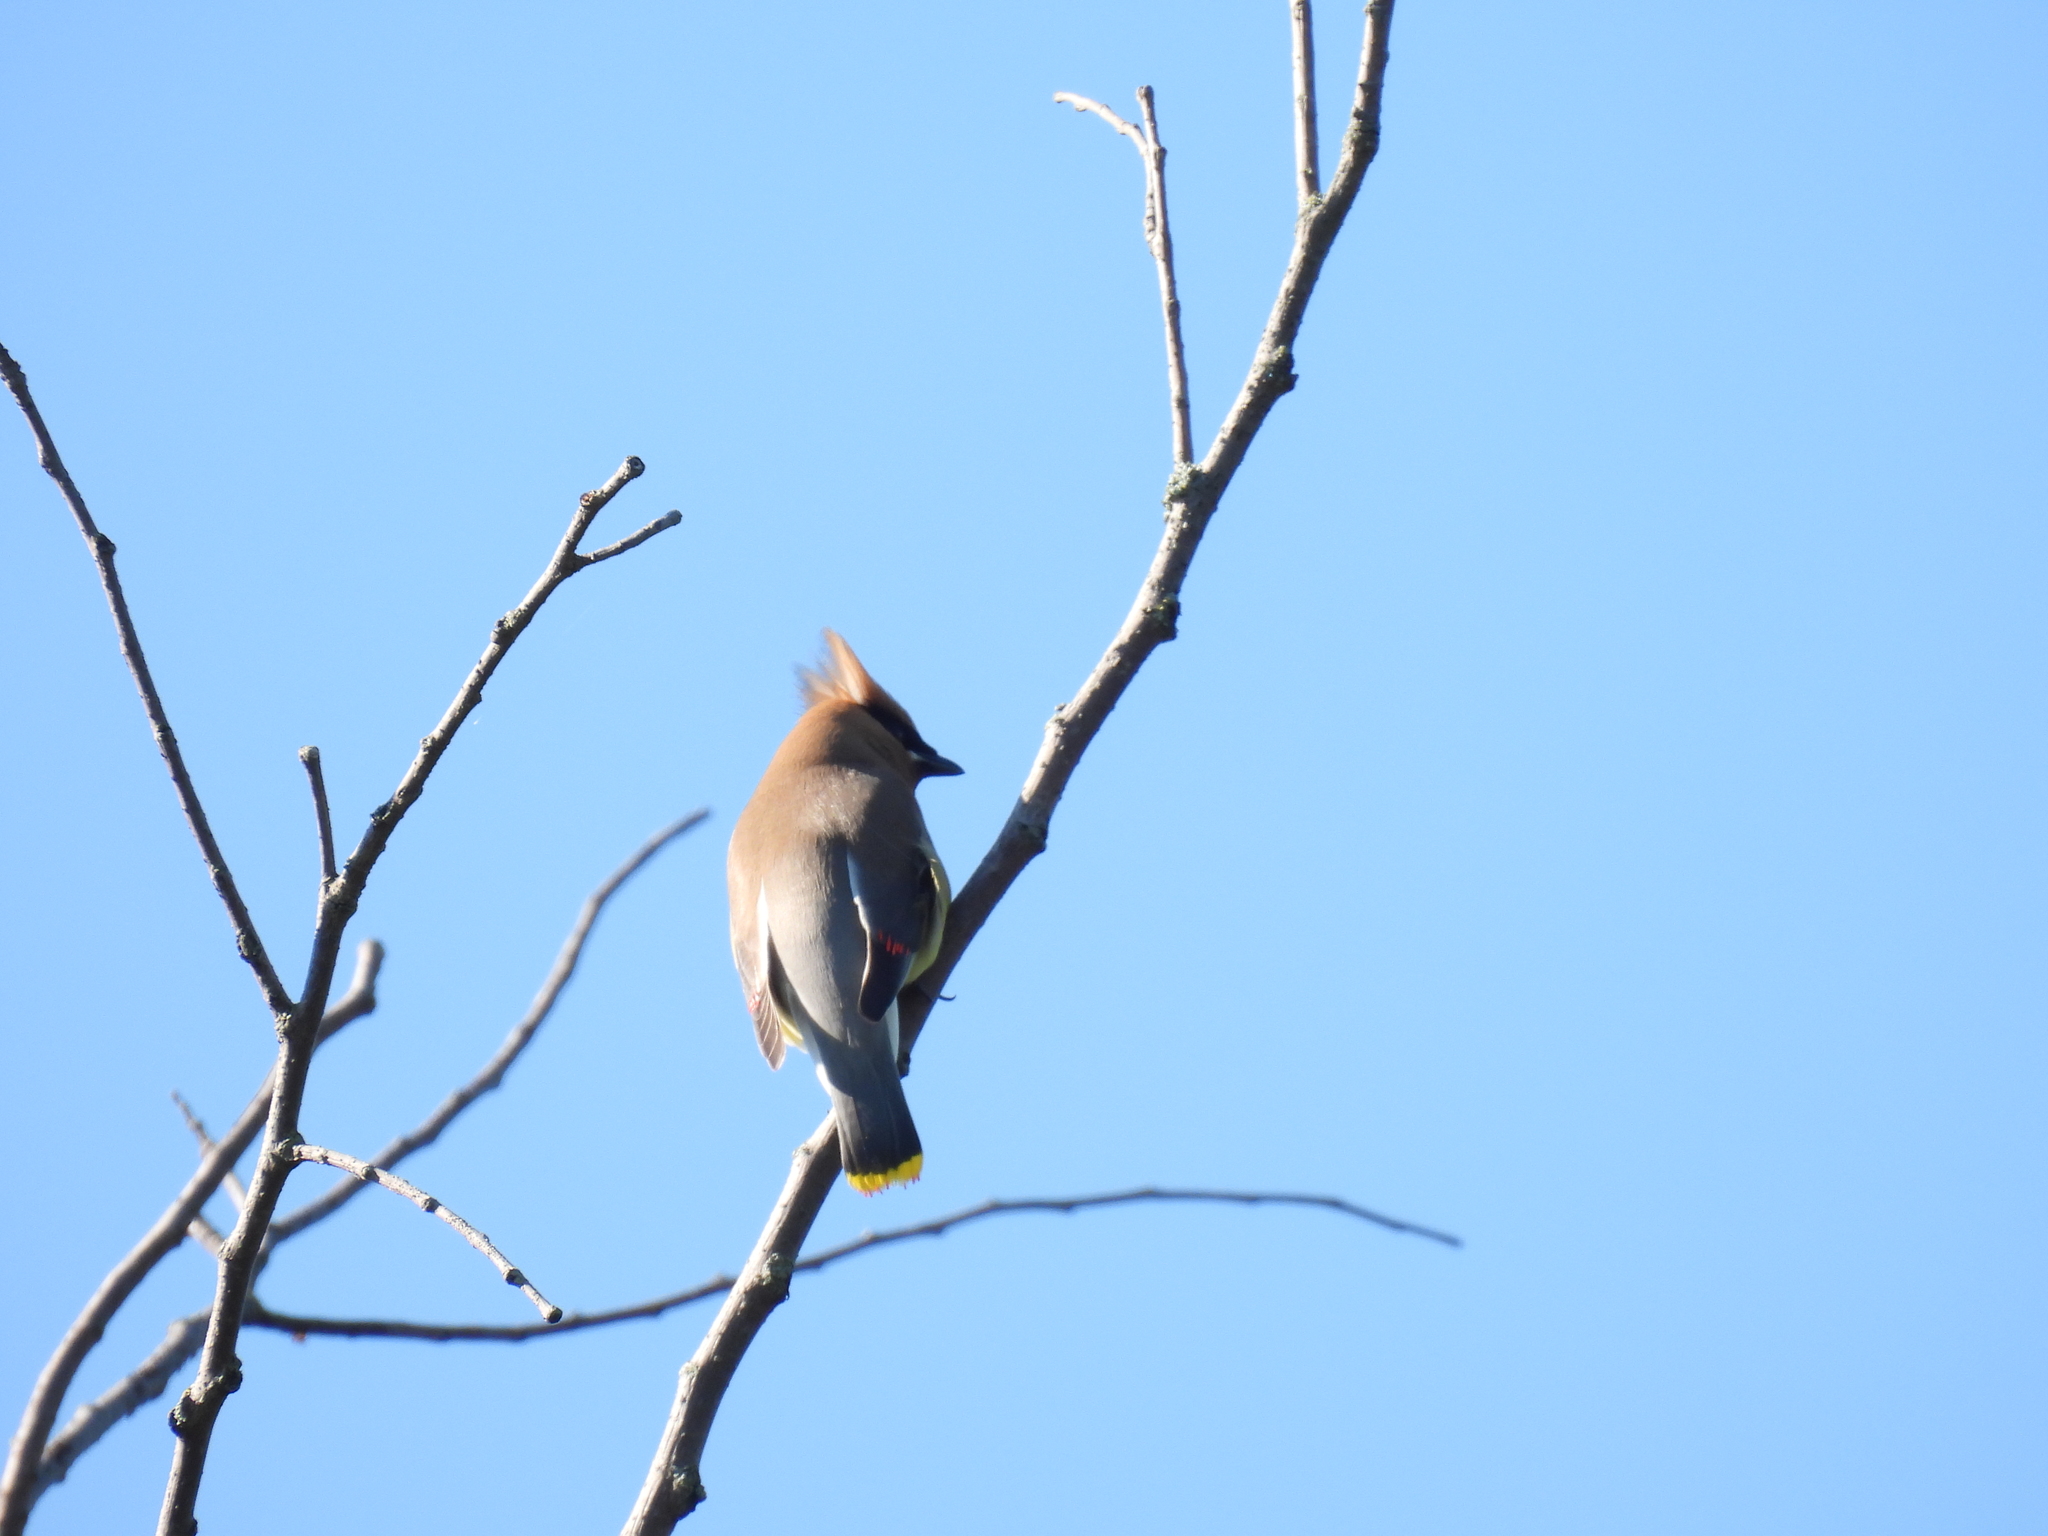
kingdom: Animalia
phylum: Chordata
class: Aves
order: Passeriformes
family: Bombycillidae
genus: Bombycilla
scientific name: Bombycilla cedrorum
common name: Cedar waxwing
